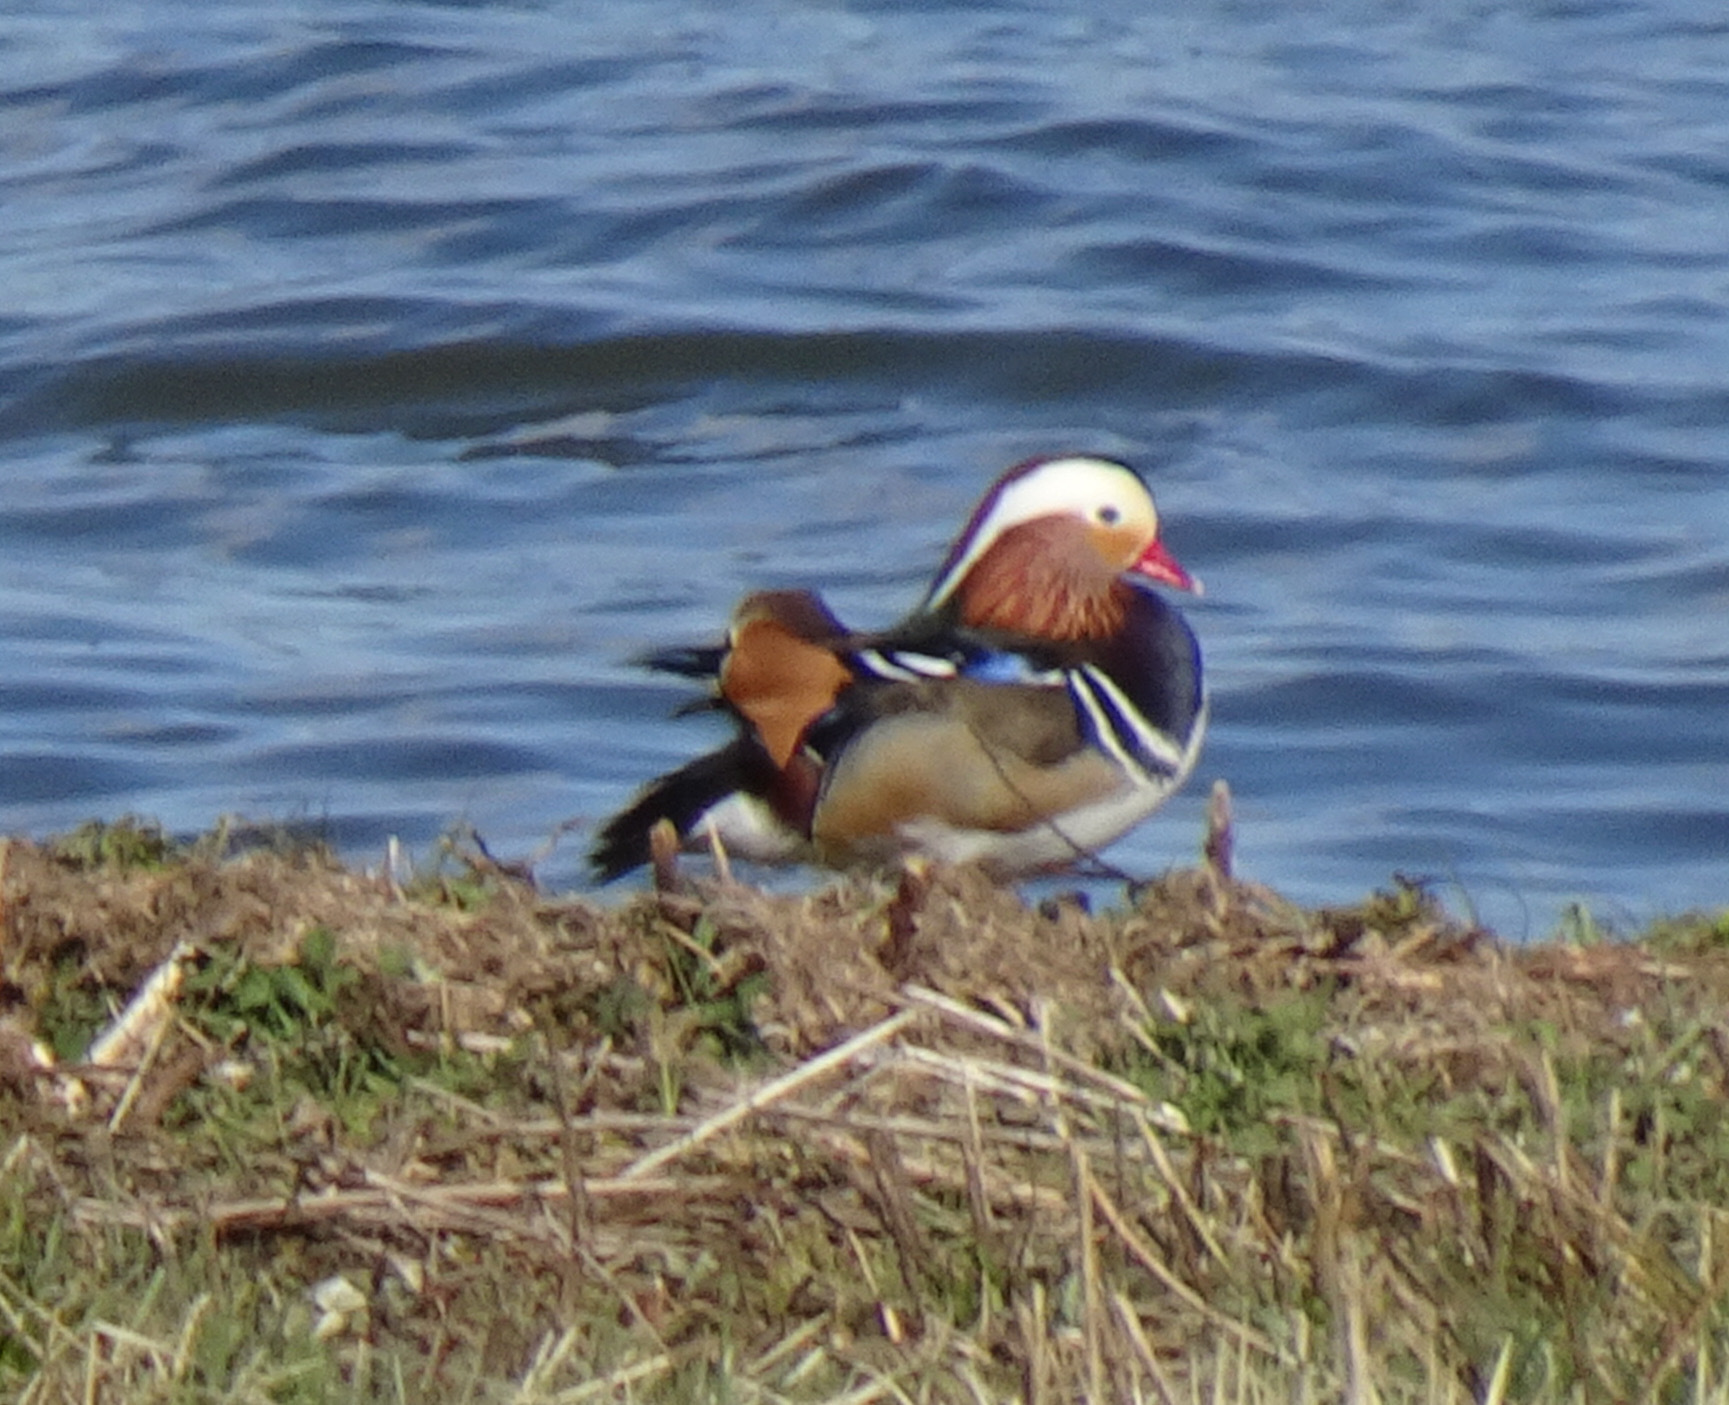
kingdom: Animalia
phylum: Chordata
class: Aves
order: Anseriformes
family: Anatidae
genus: Aix
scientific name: Aix galericulata
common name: Mandarin duck
